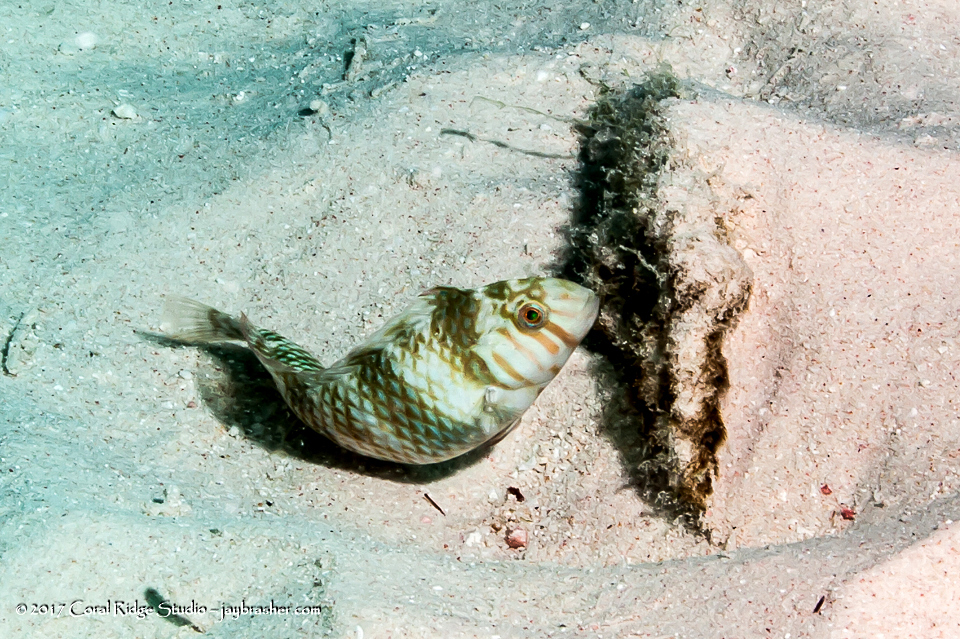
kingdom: Animalia
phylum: Chordata
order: Perciformes
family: Labridae
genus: Xyrichtys
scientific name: Xyrichtys splendens
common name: Green razorfish
